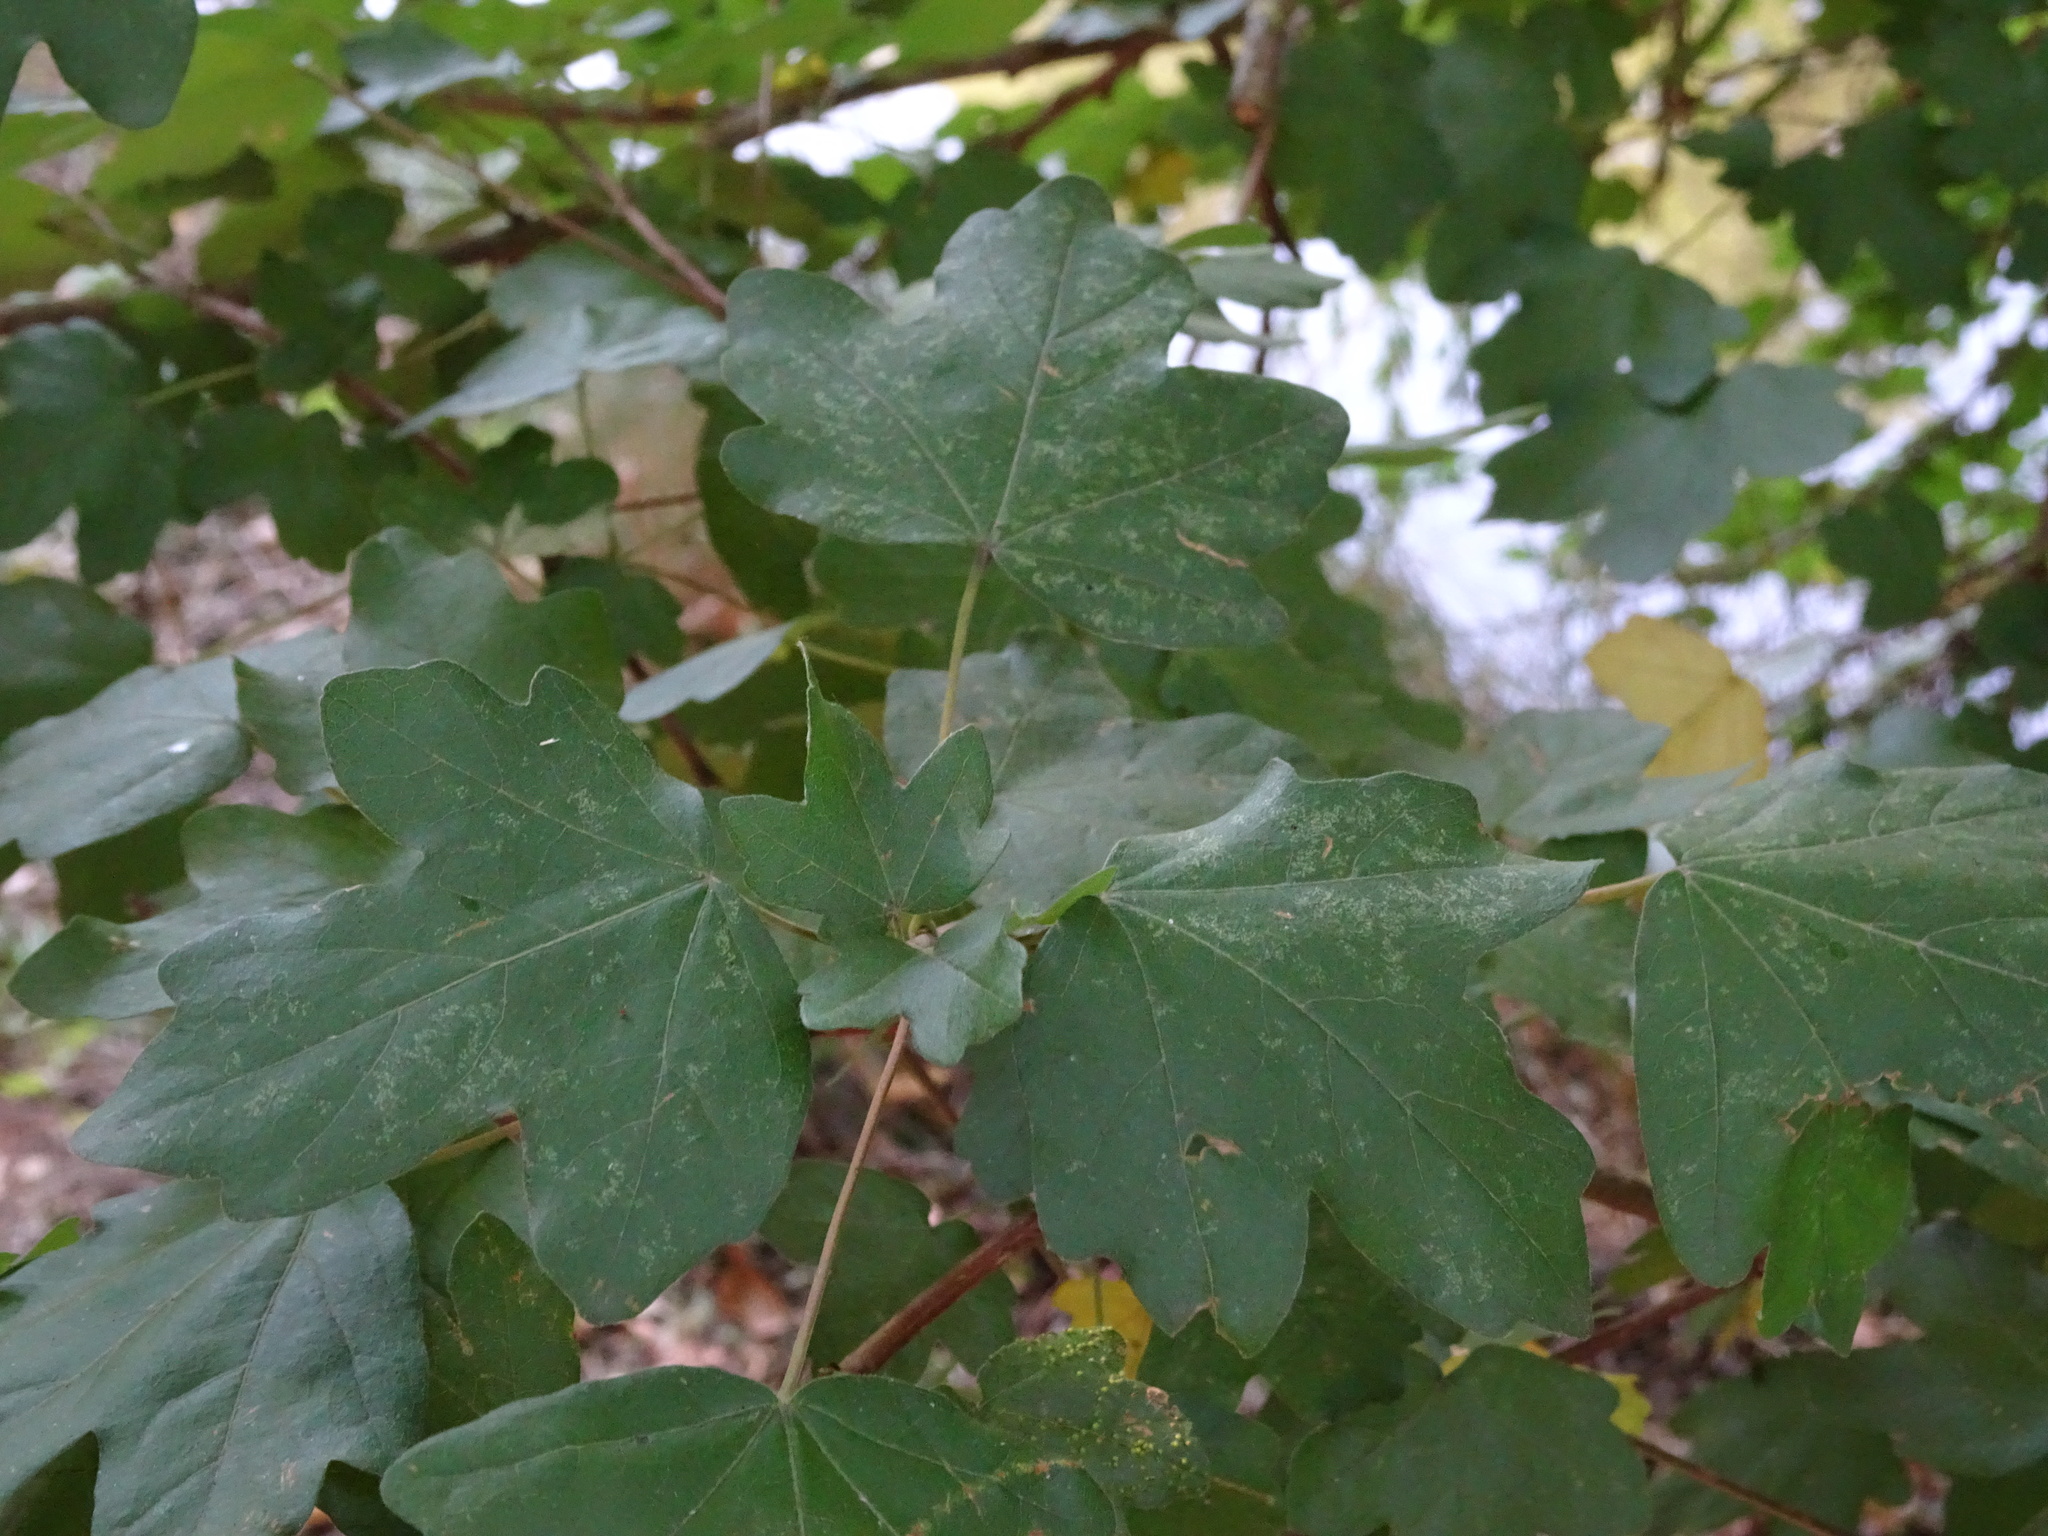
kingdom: Plantae
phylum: Tracheophyta
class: Magnoliopsida
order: Sapindales
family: Sapindaceae
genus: Acer
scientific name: Acer campestre
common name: Field maple
